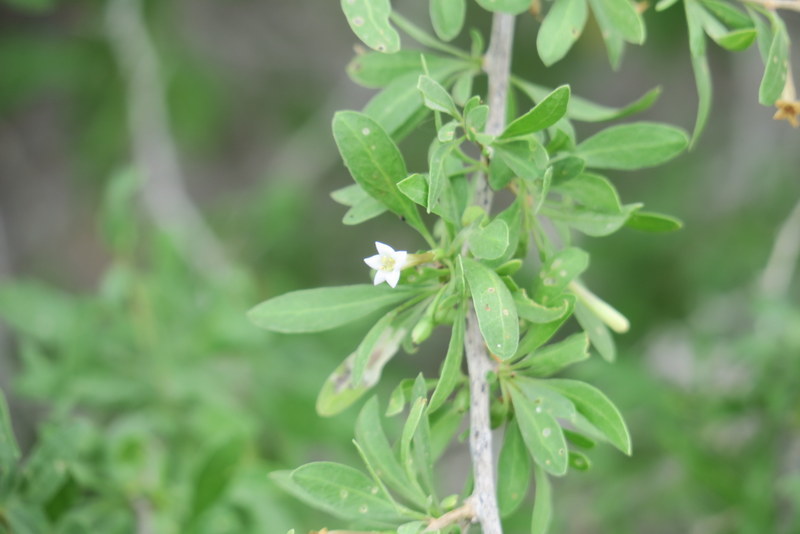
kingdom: Plantae
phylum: Tracheophyta
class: Magnoliopsida
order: Solanales
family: Solanaceae
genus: Lycium
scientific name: Lycium shawii
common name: Boxthorn
